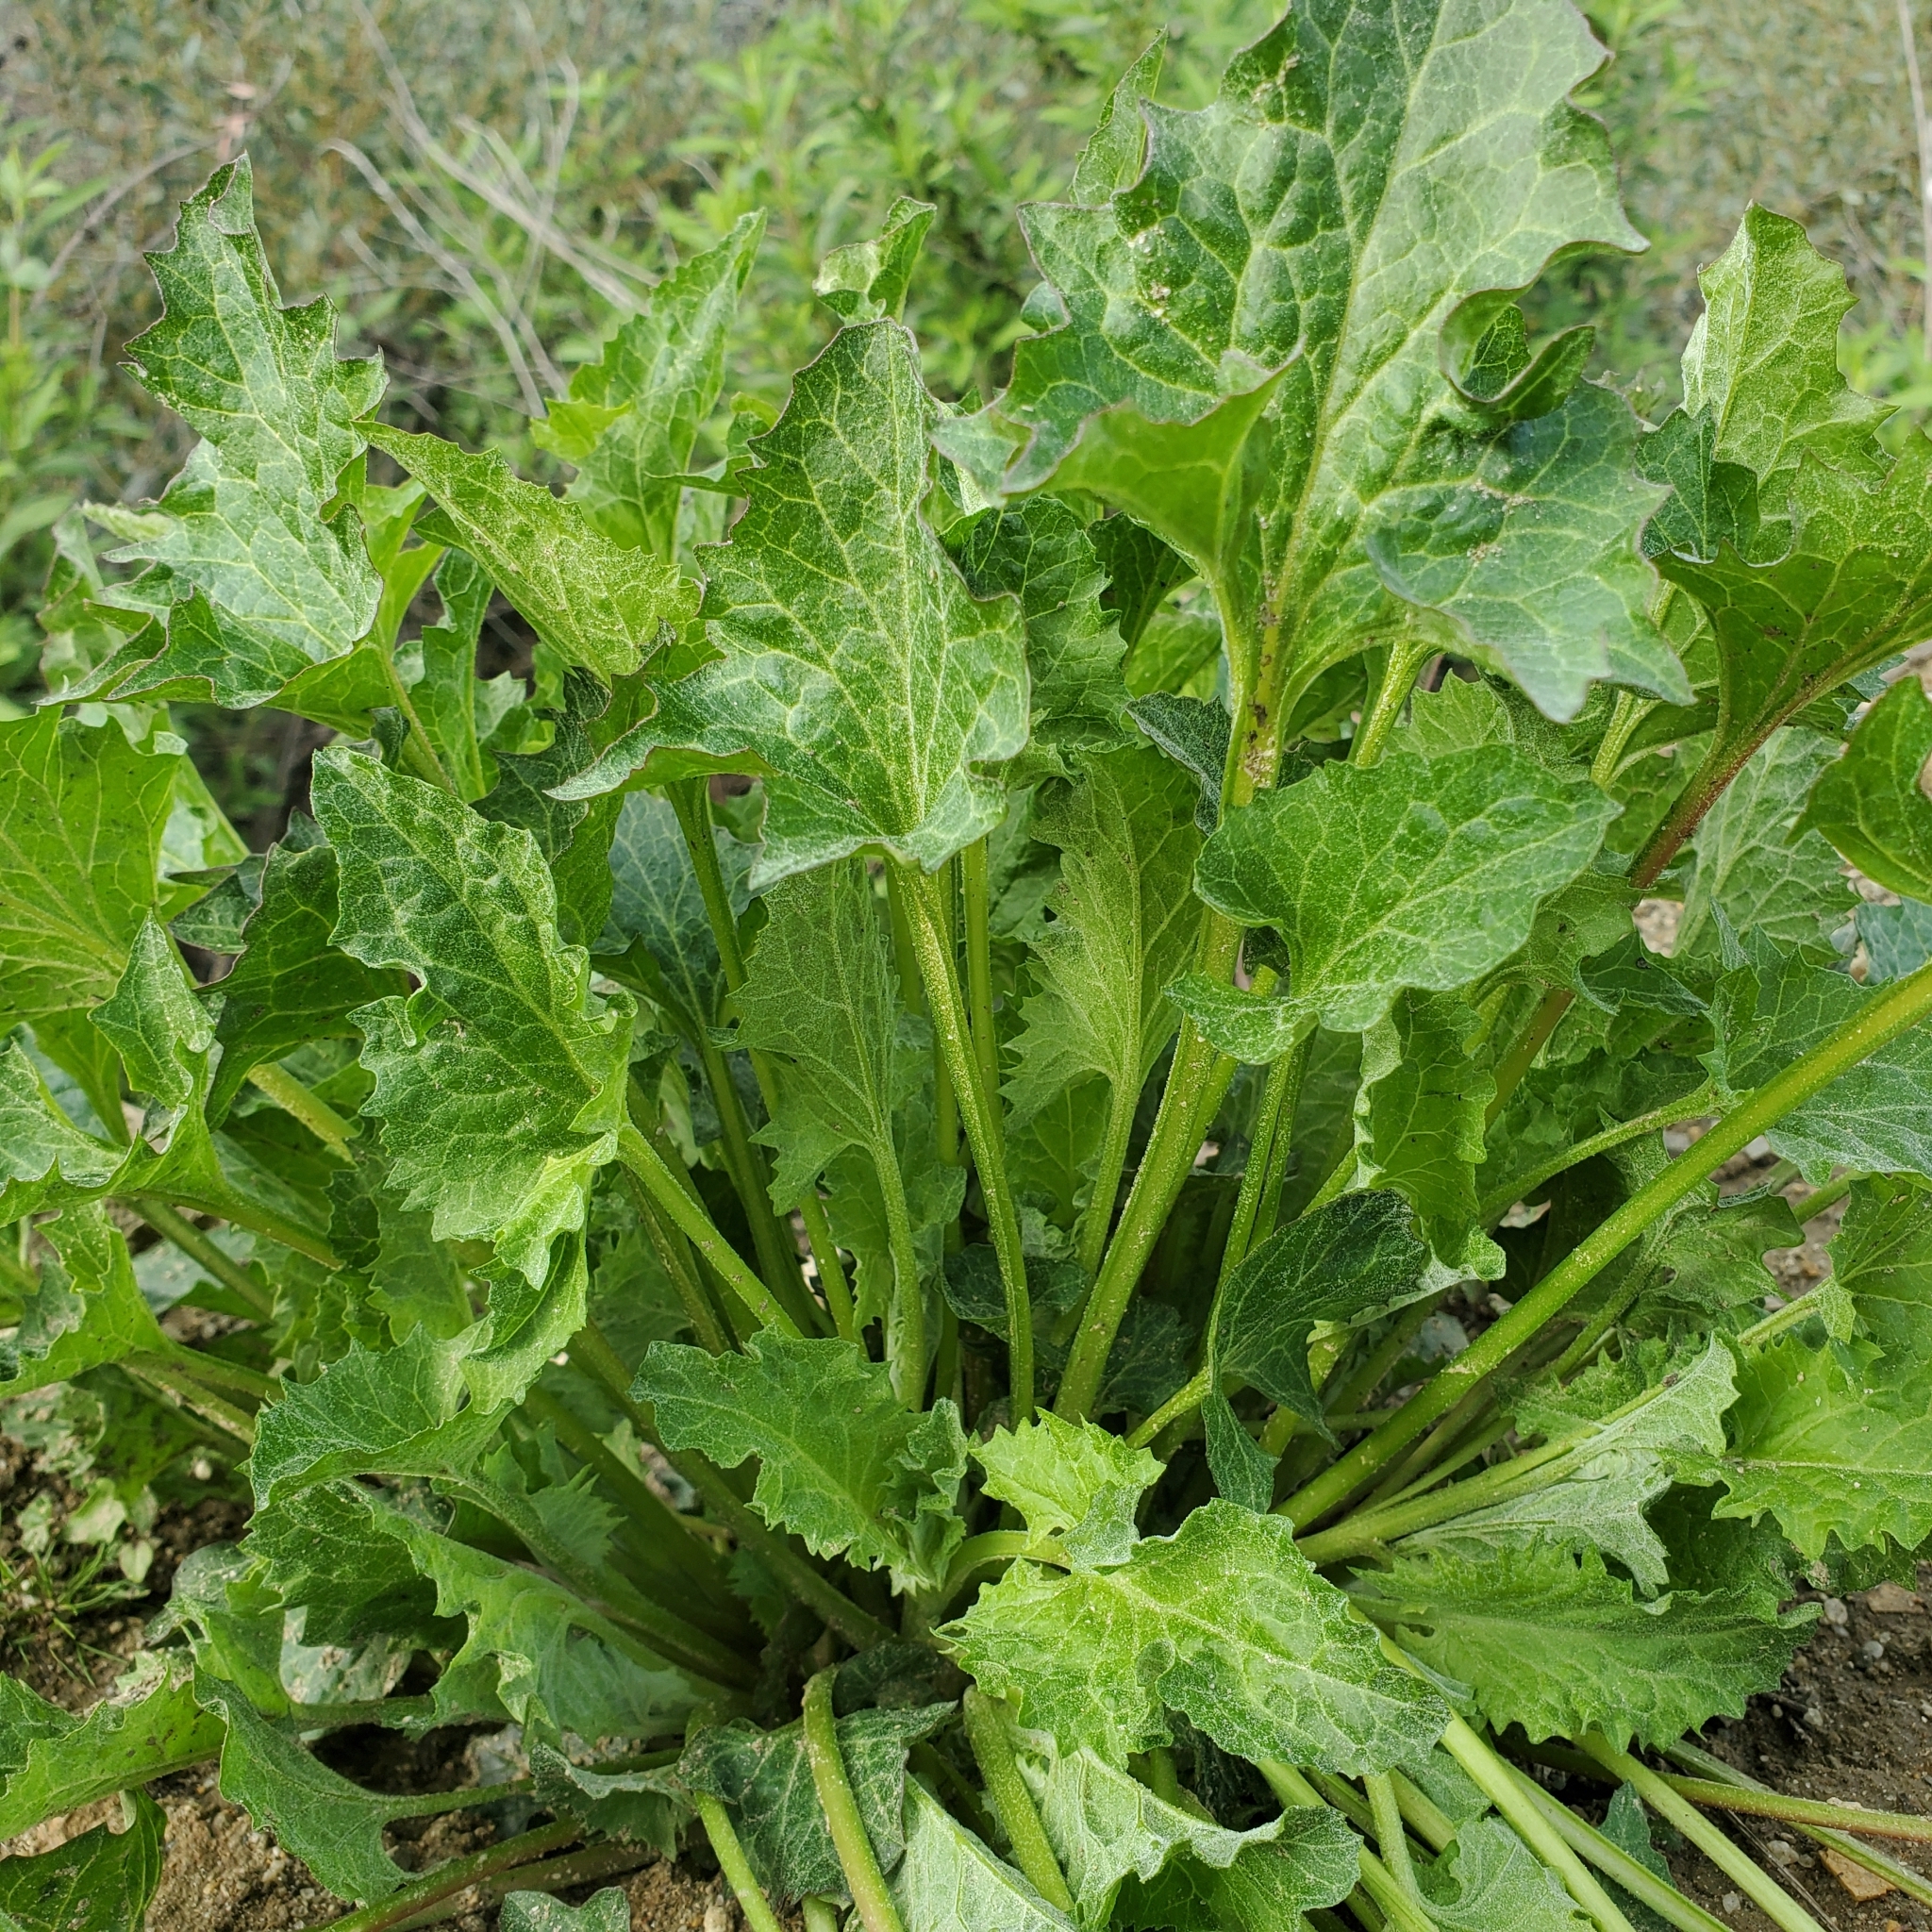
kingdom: Plantae
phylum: Tracheophyta
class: Magnoliopsida
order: Caryophyllales
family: Amaranthaceae
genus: Blitum
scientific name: Blitum californicum
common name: California goosefoot
